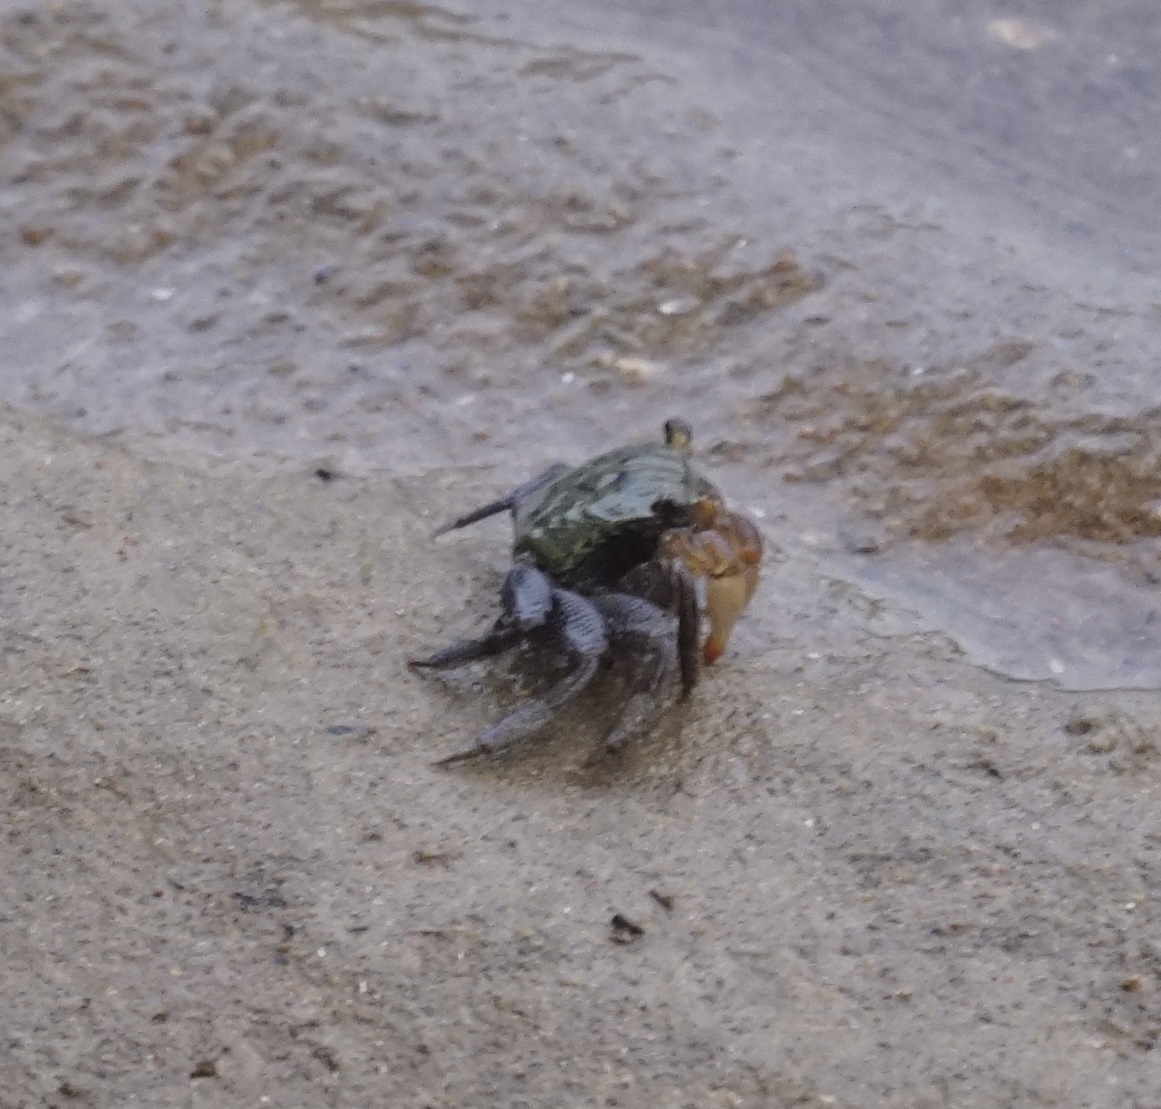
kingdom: Animalia
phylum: Arthropoda
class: Malacostraca
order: Decapoda
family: Sesarmidae
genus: Parasesarma
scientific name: Parasesarma erythodactylum
